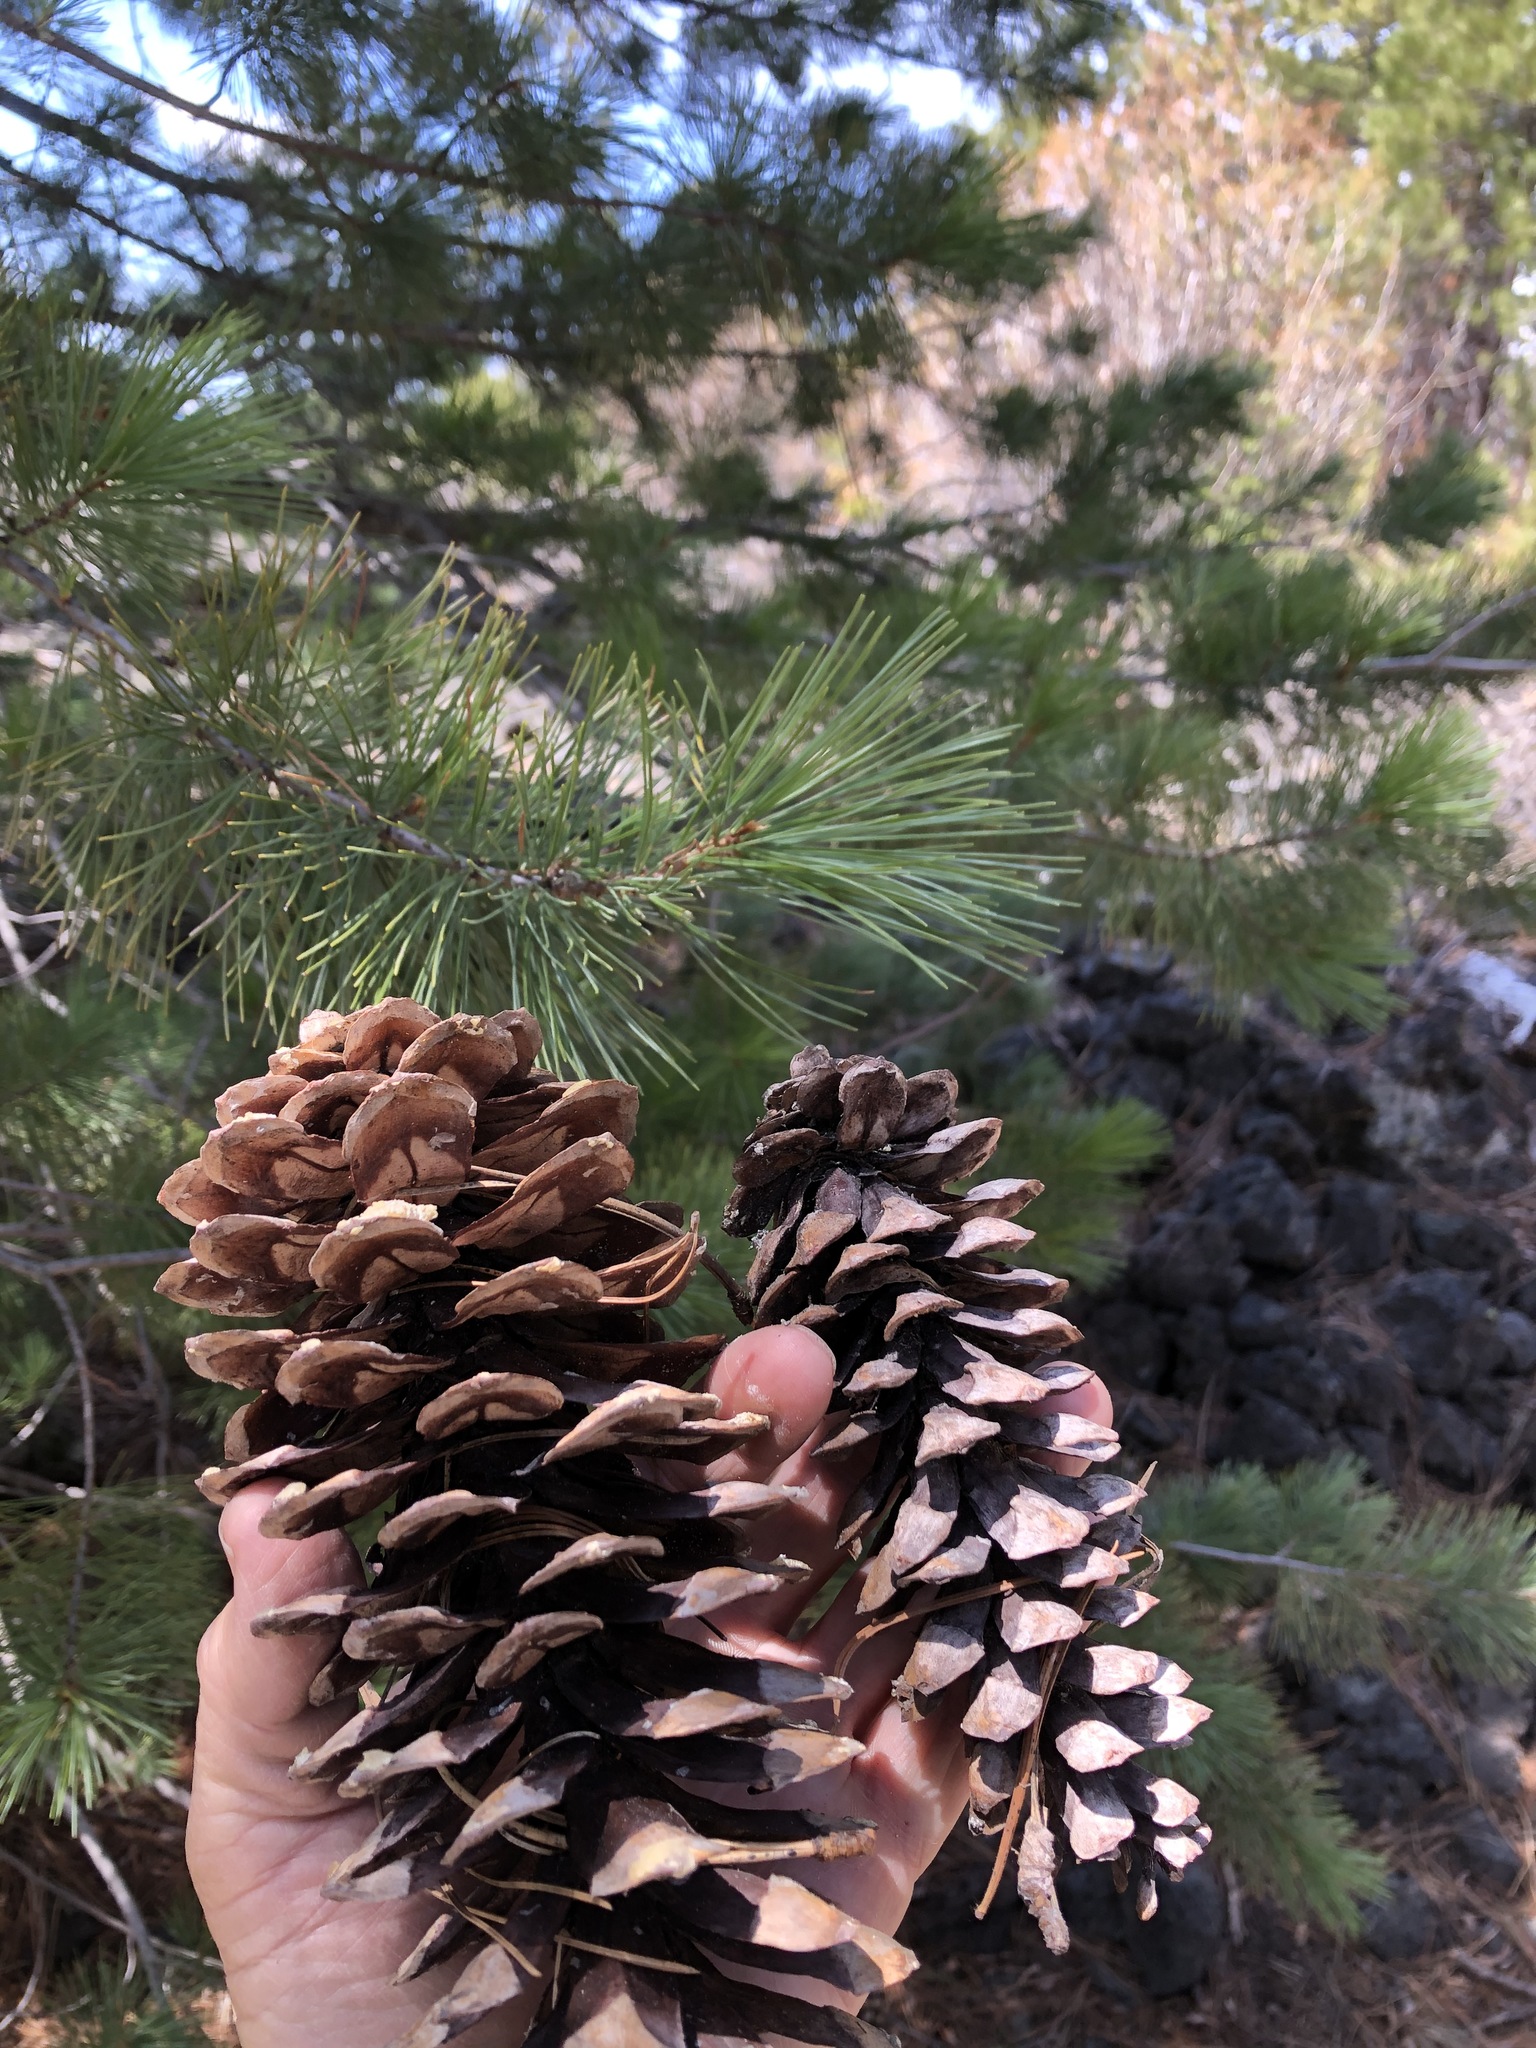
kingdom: Plantae
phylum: Tracheophyta
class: Pinopsida
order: Pinales
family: Pinaceae
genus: Pinus
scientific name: Pinus monticola
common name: Western white pine
